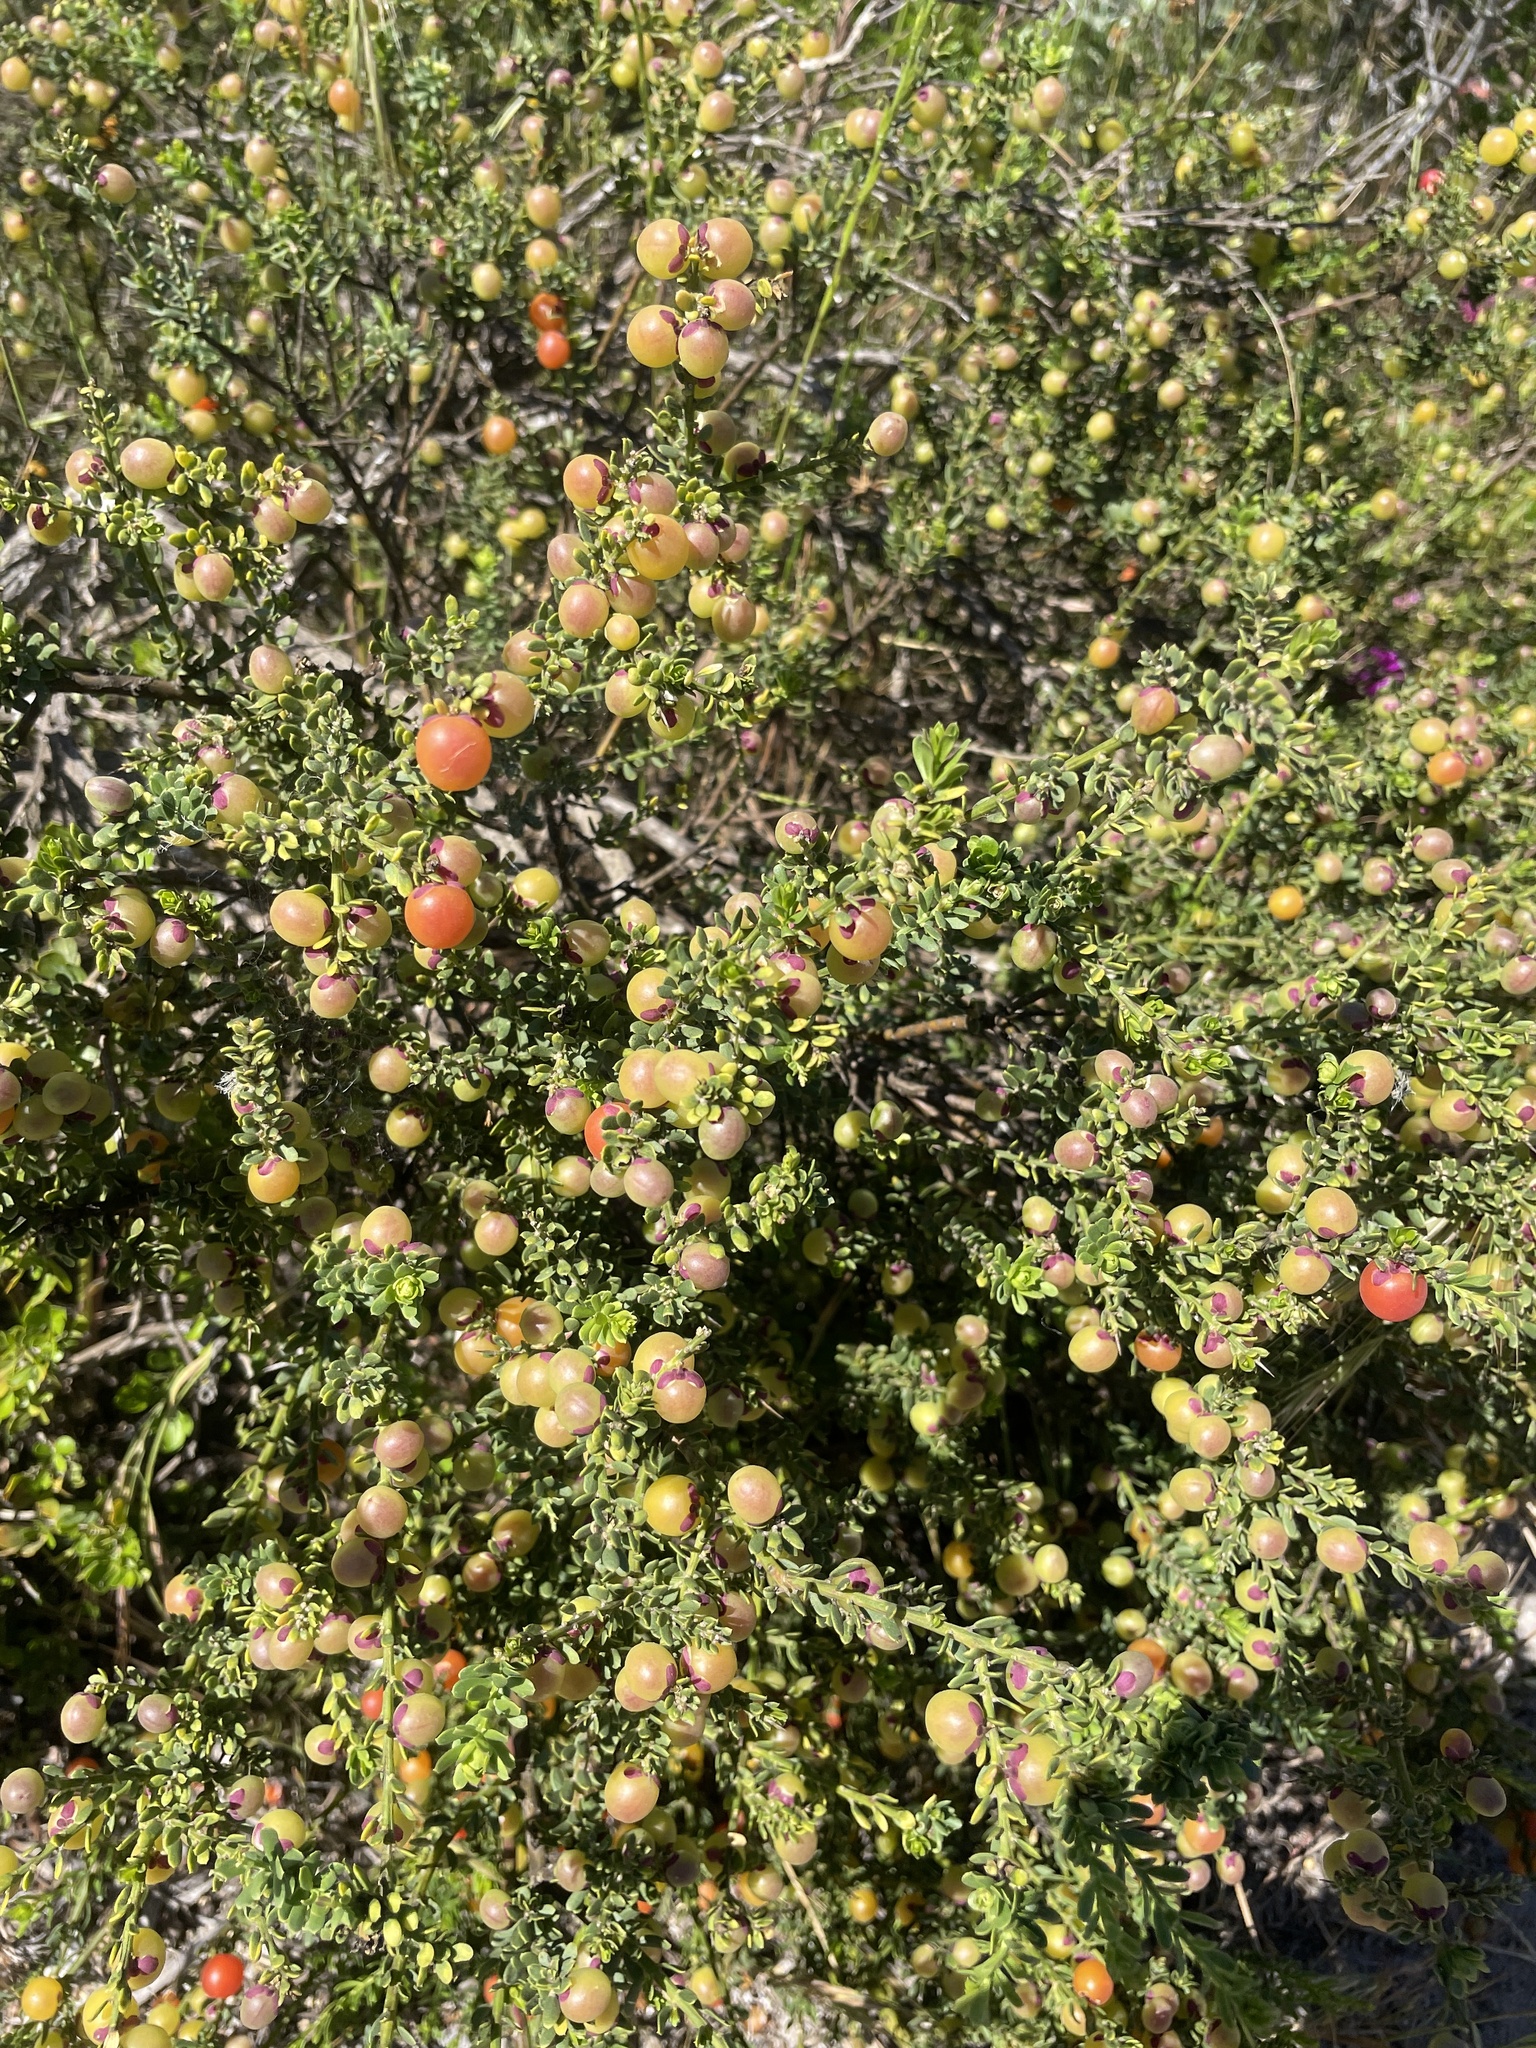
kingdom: Plantae
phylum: Tracheophyta
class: Magnoliopsida
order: Fabales
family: Polygalaceae
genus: Muraltia
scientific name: Muraltia spinosa
